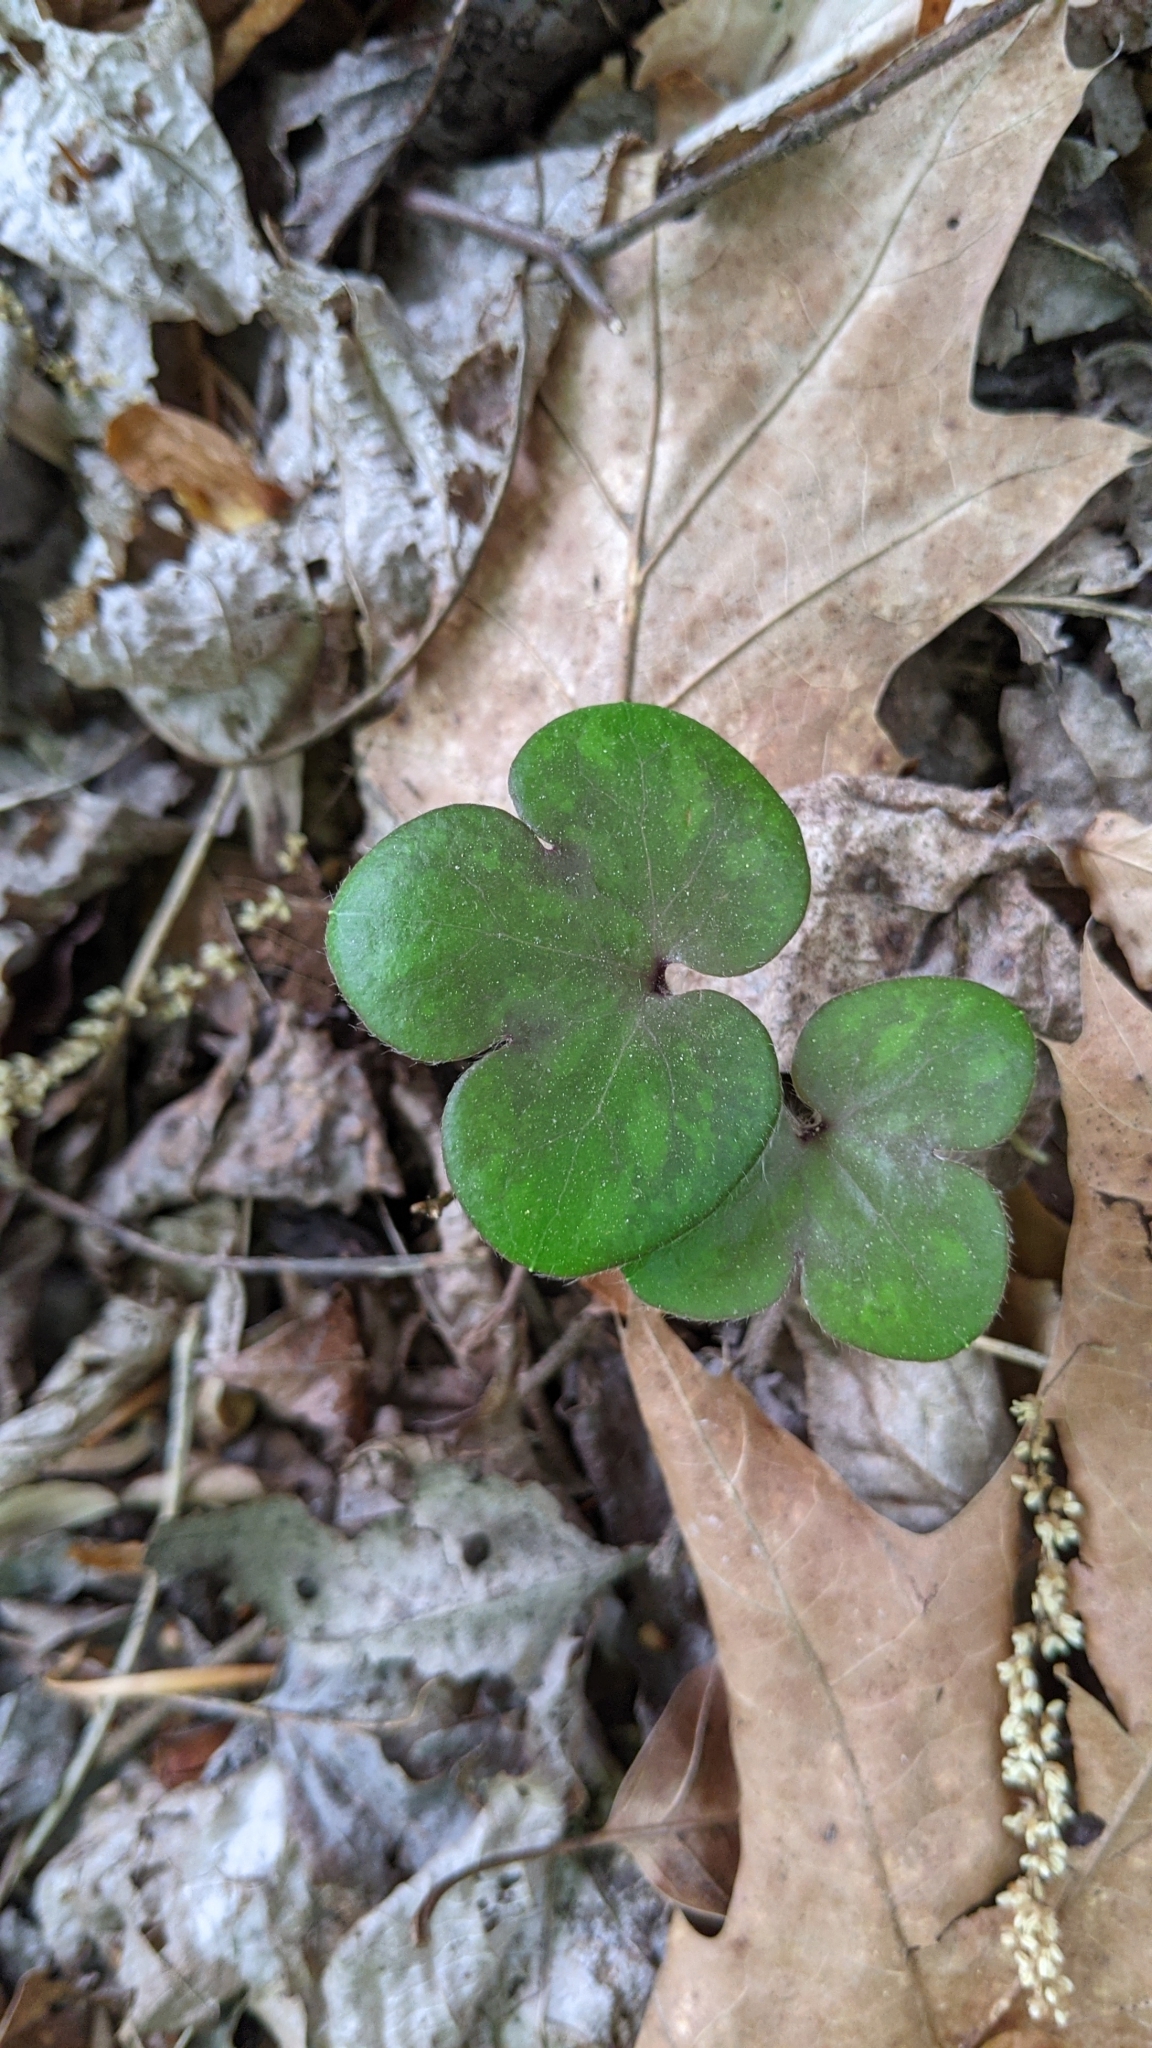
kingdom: Plantae
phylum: Tracheophyta
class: Magnoliopsida
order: Ranunculales
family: Ranunculaceae
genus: Hepatica
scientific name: Hepatica americana
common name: American hepatica
